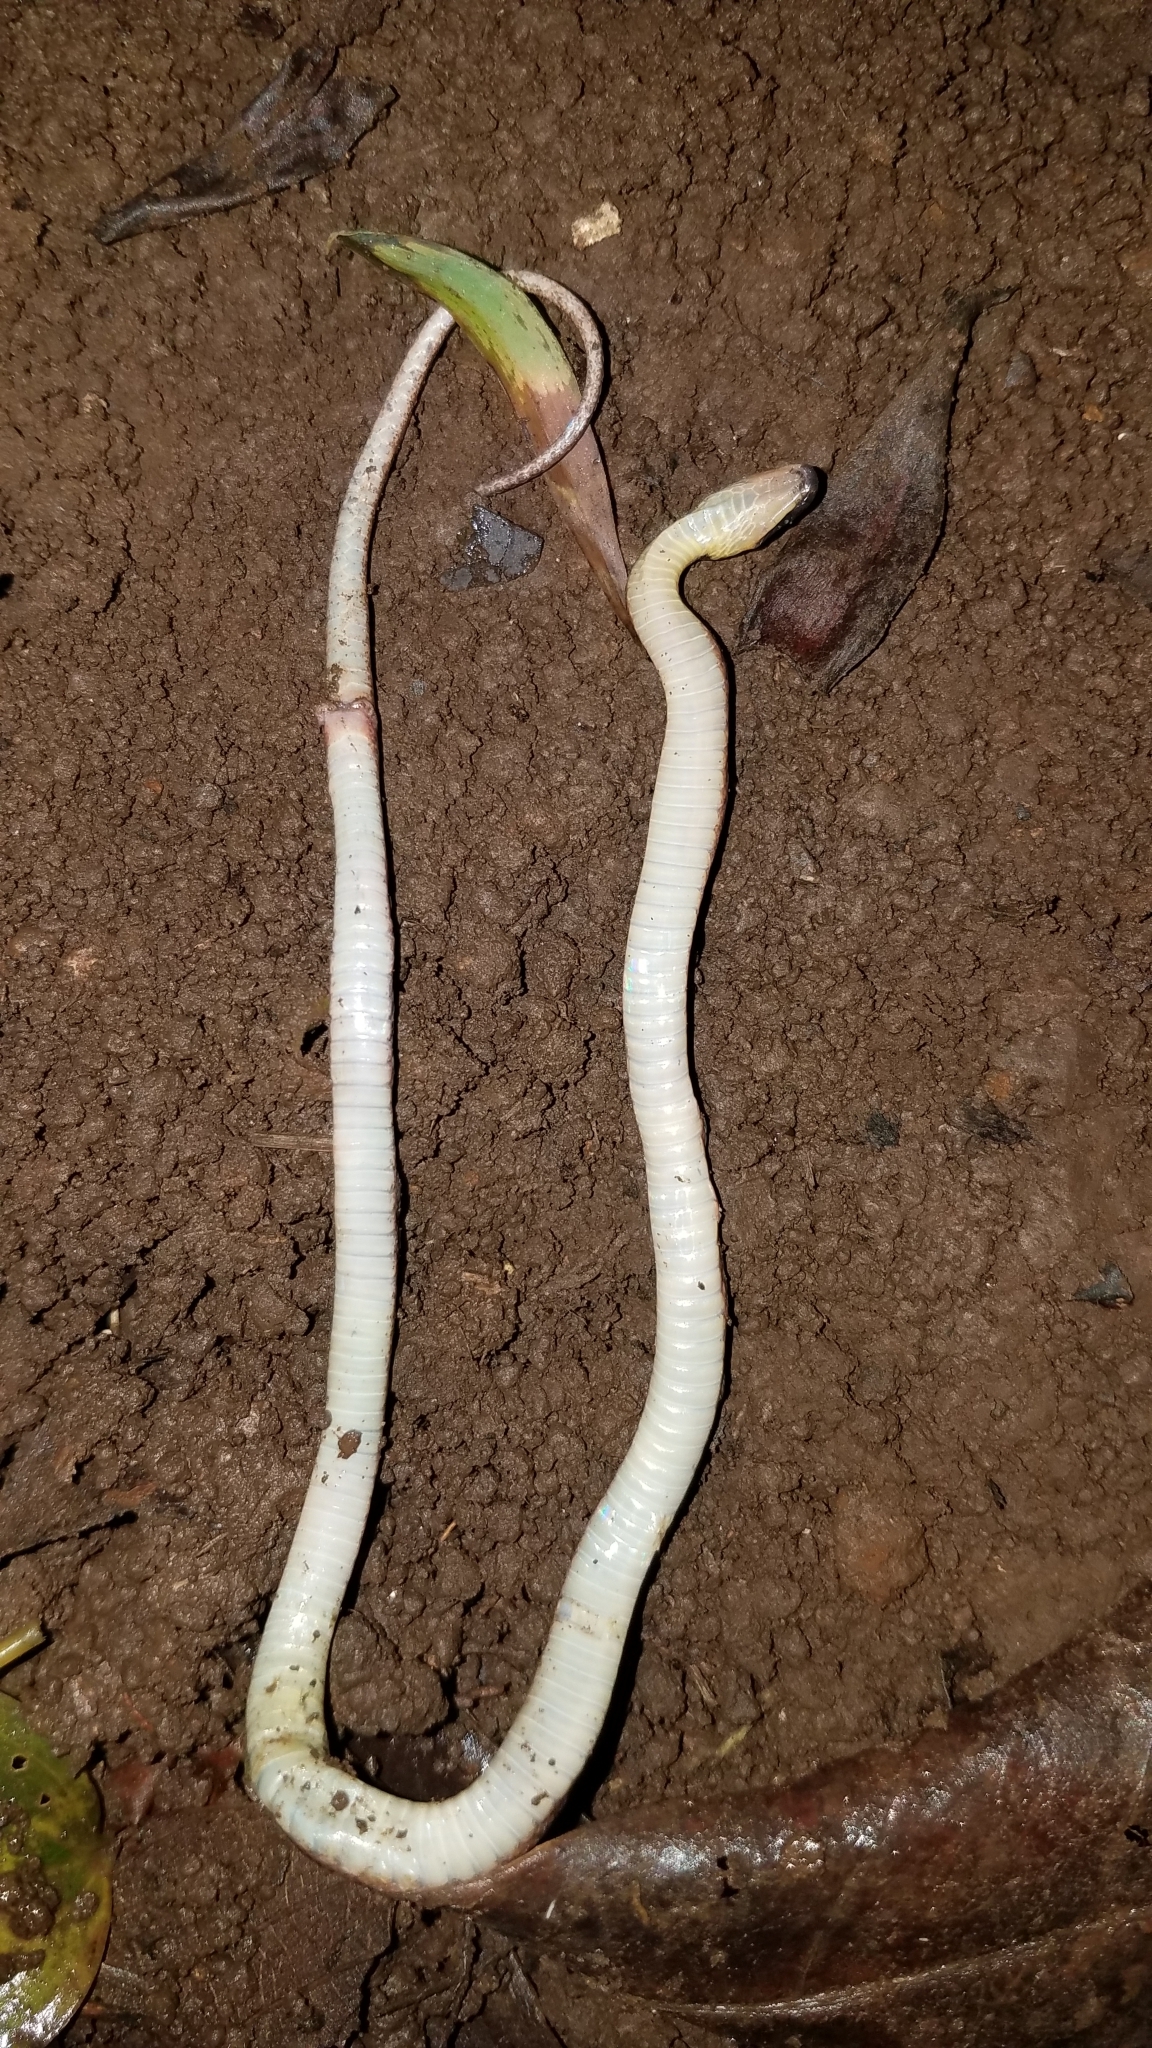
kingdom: Animalia
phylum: Chordata
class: Squamata
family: Colubridae
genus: Ninia
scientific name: Ninia sebae
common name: Redback coffee snake
